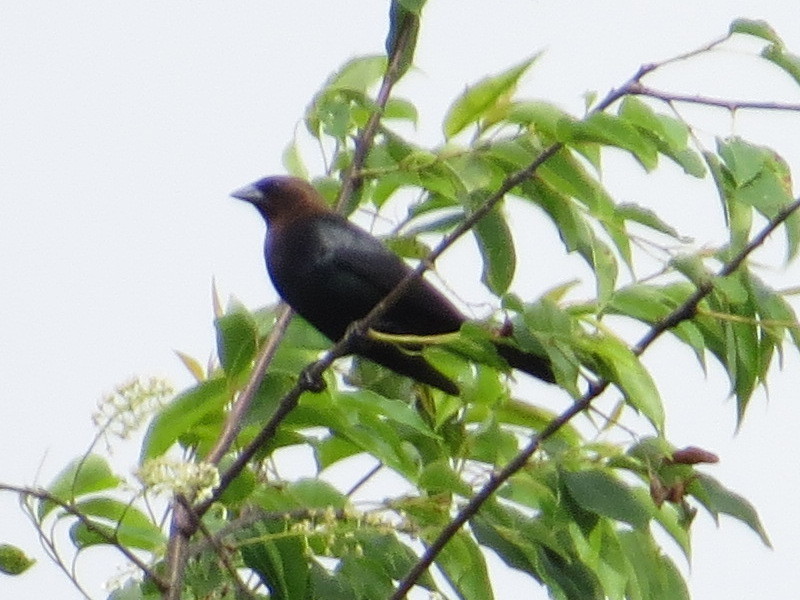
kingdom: Animalia
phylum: Chordata
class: Aves
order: Passeriformes
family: Icteridae
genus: Molothrus
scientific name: Molothrus ater
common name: Brown-headed cowbird
